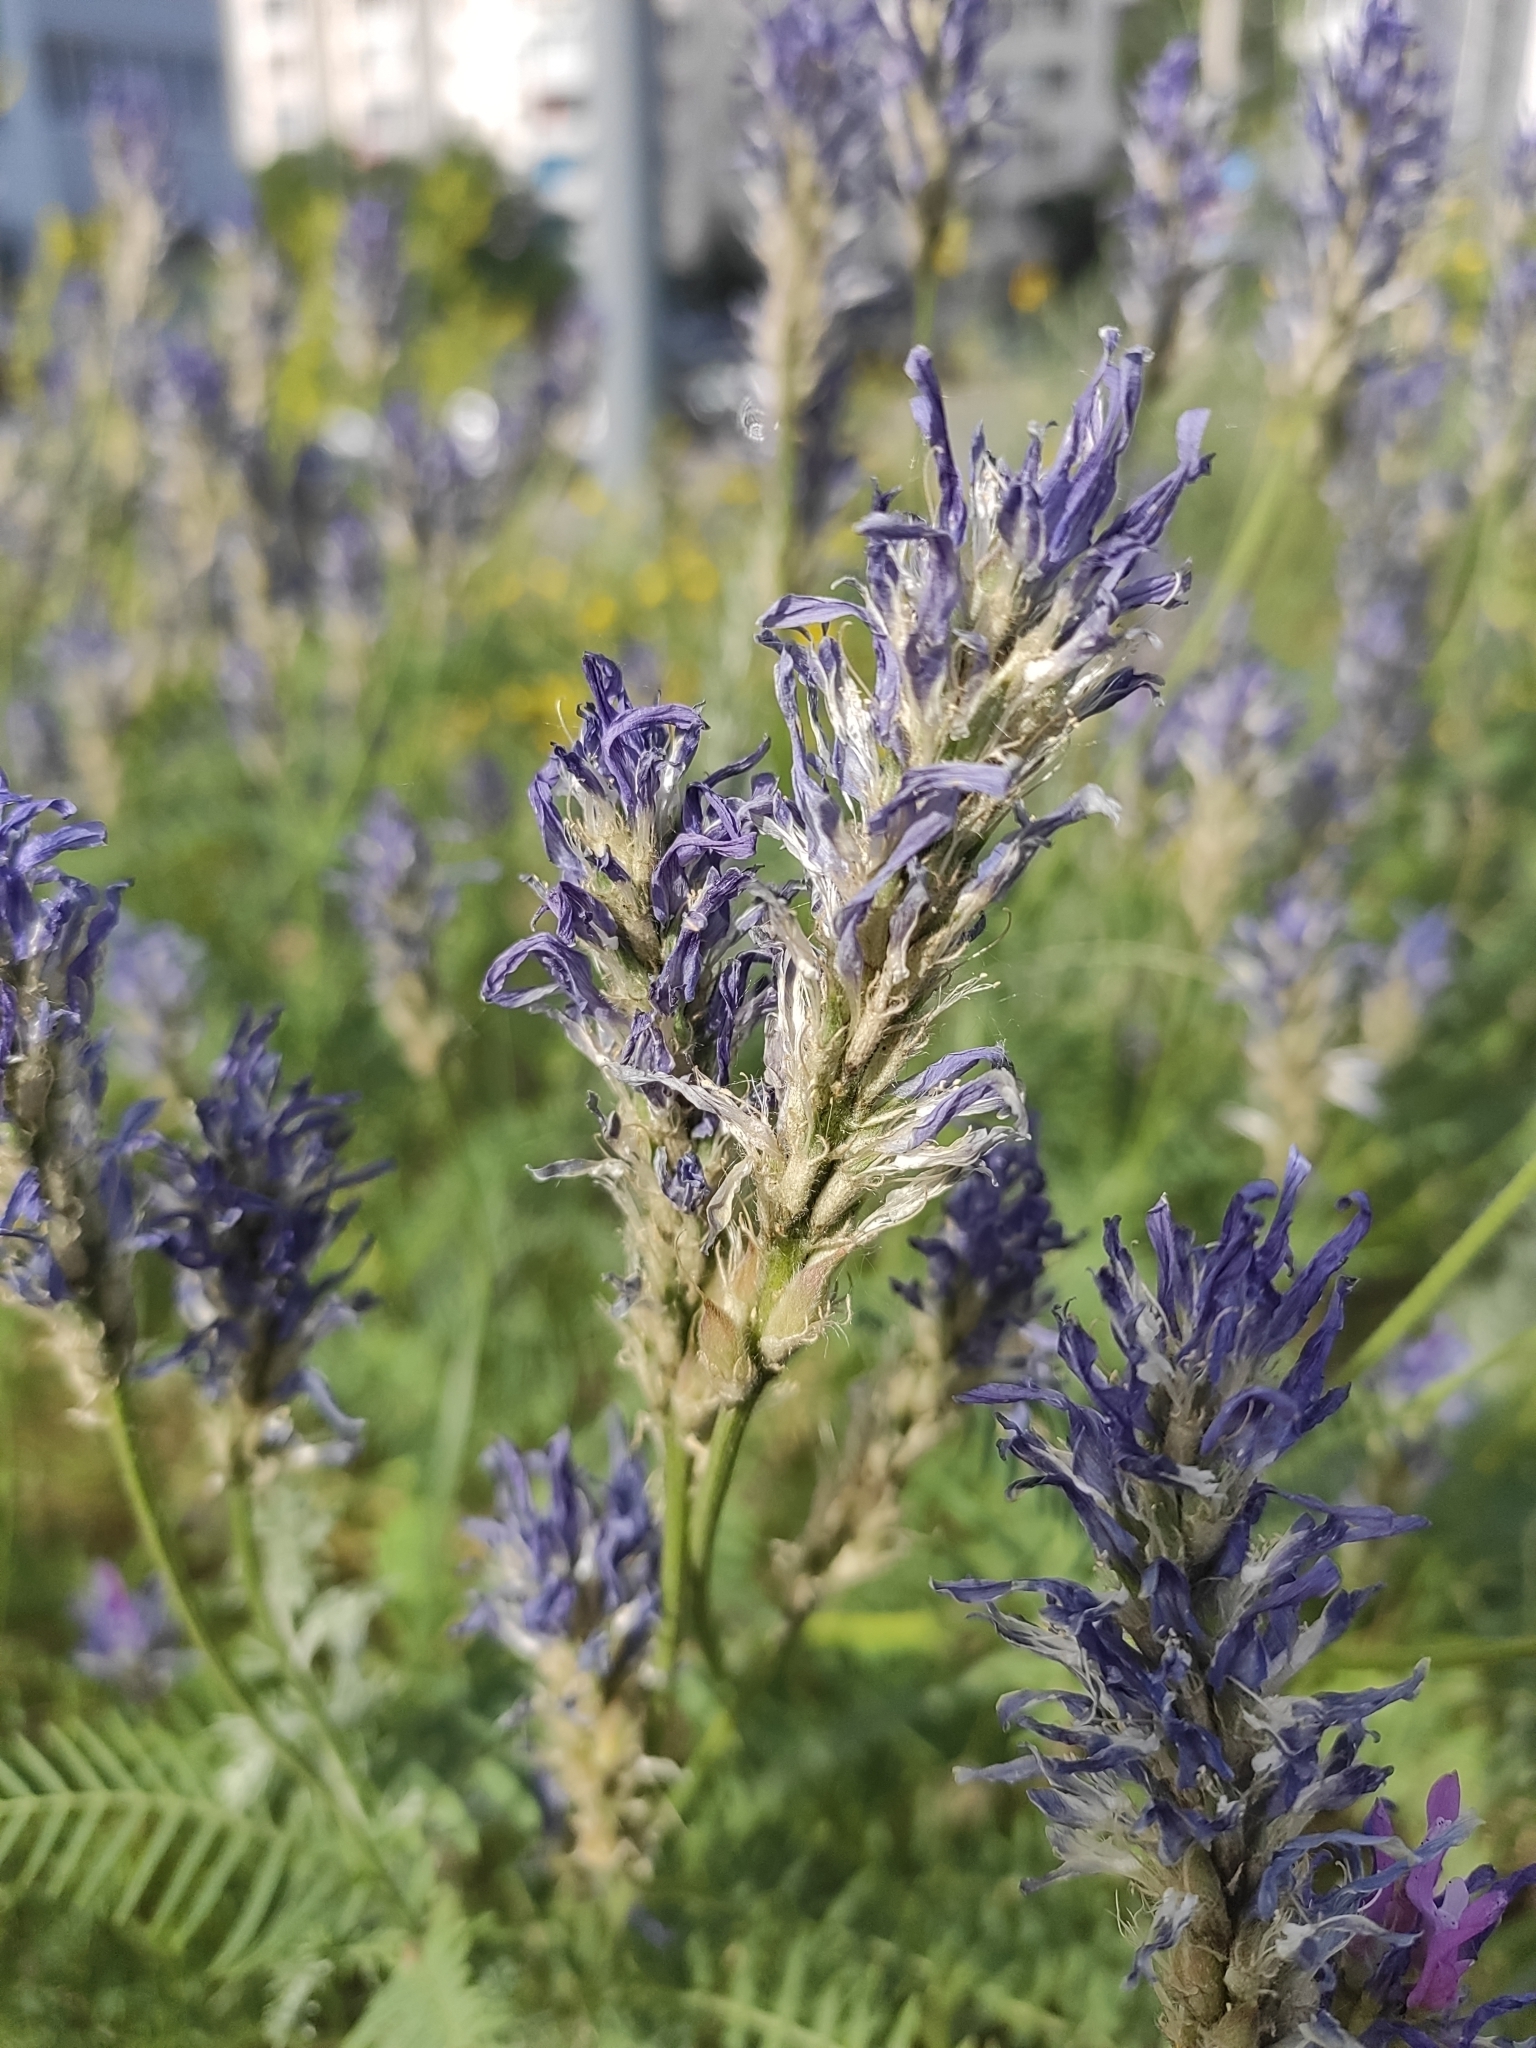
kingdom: Plantae
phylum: Tracheophyta
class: Magnoliopsida
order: Fabales
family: Fabaceae
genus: Astragalus
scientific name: Astragalus onobrychis
